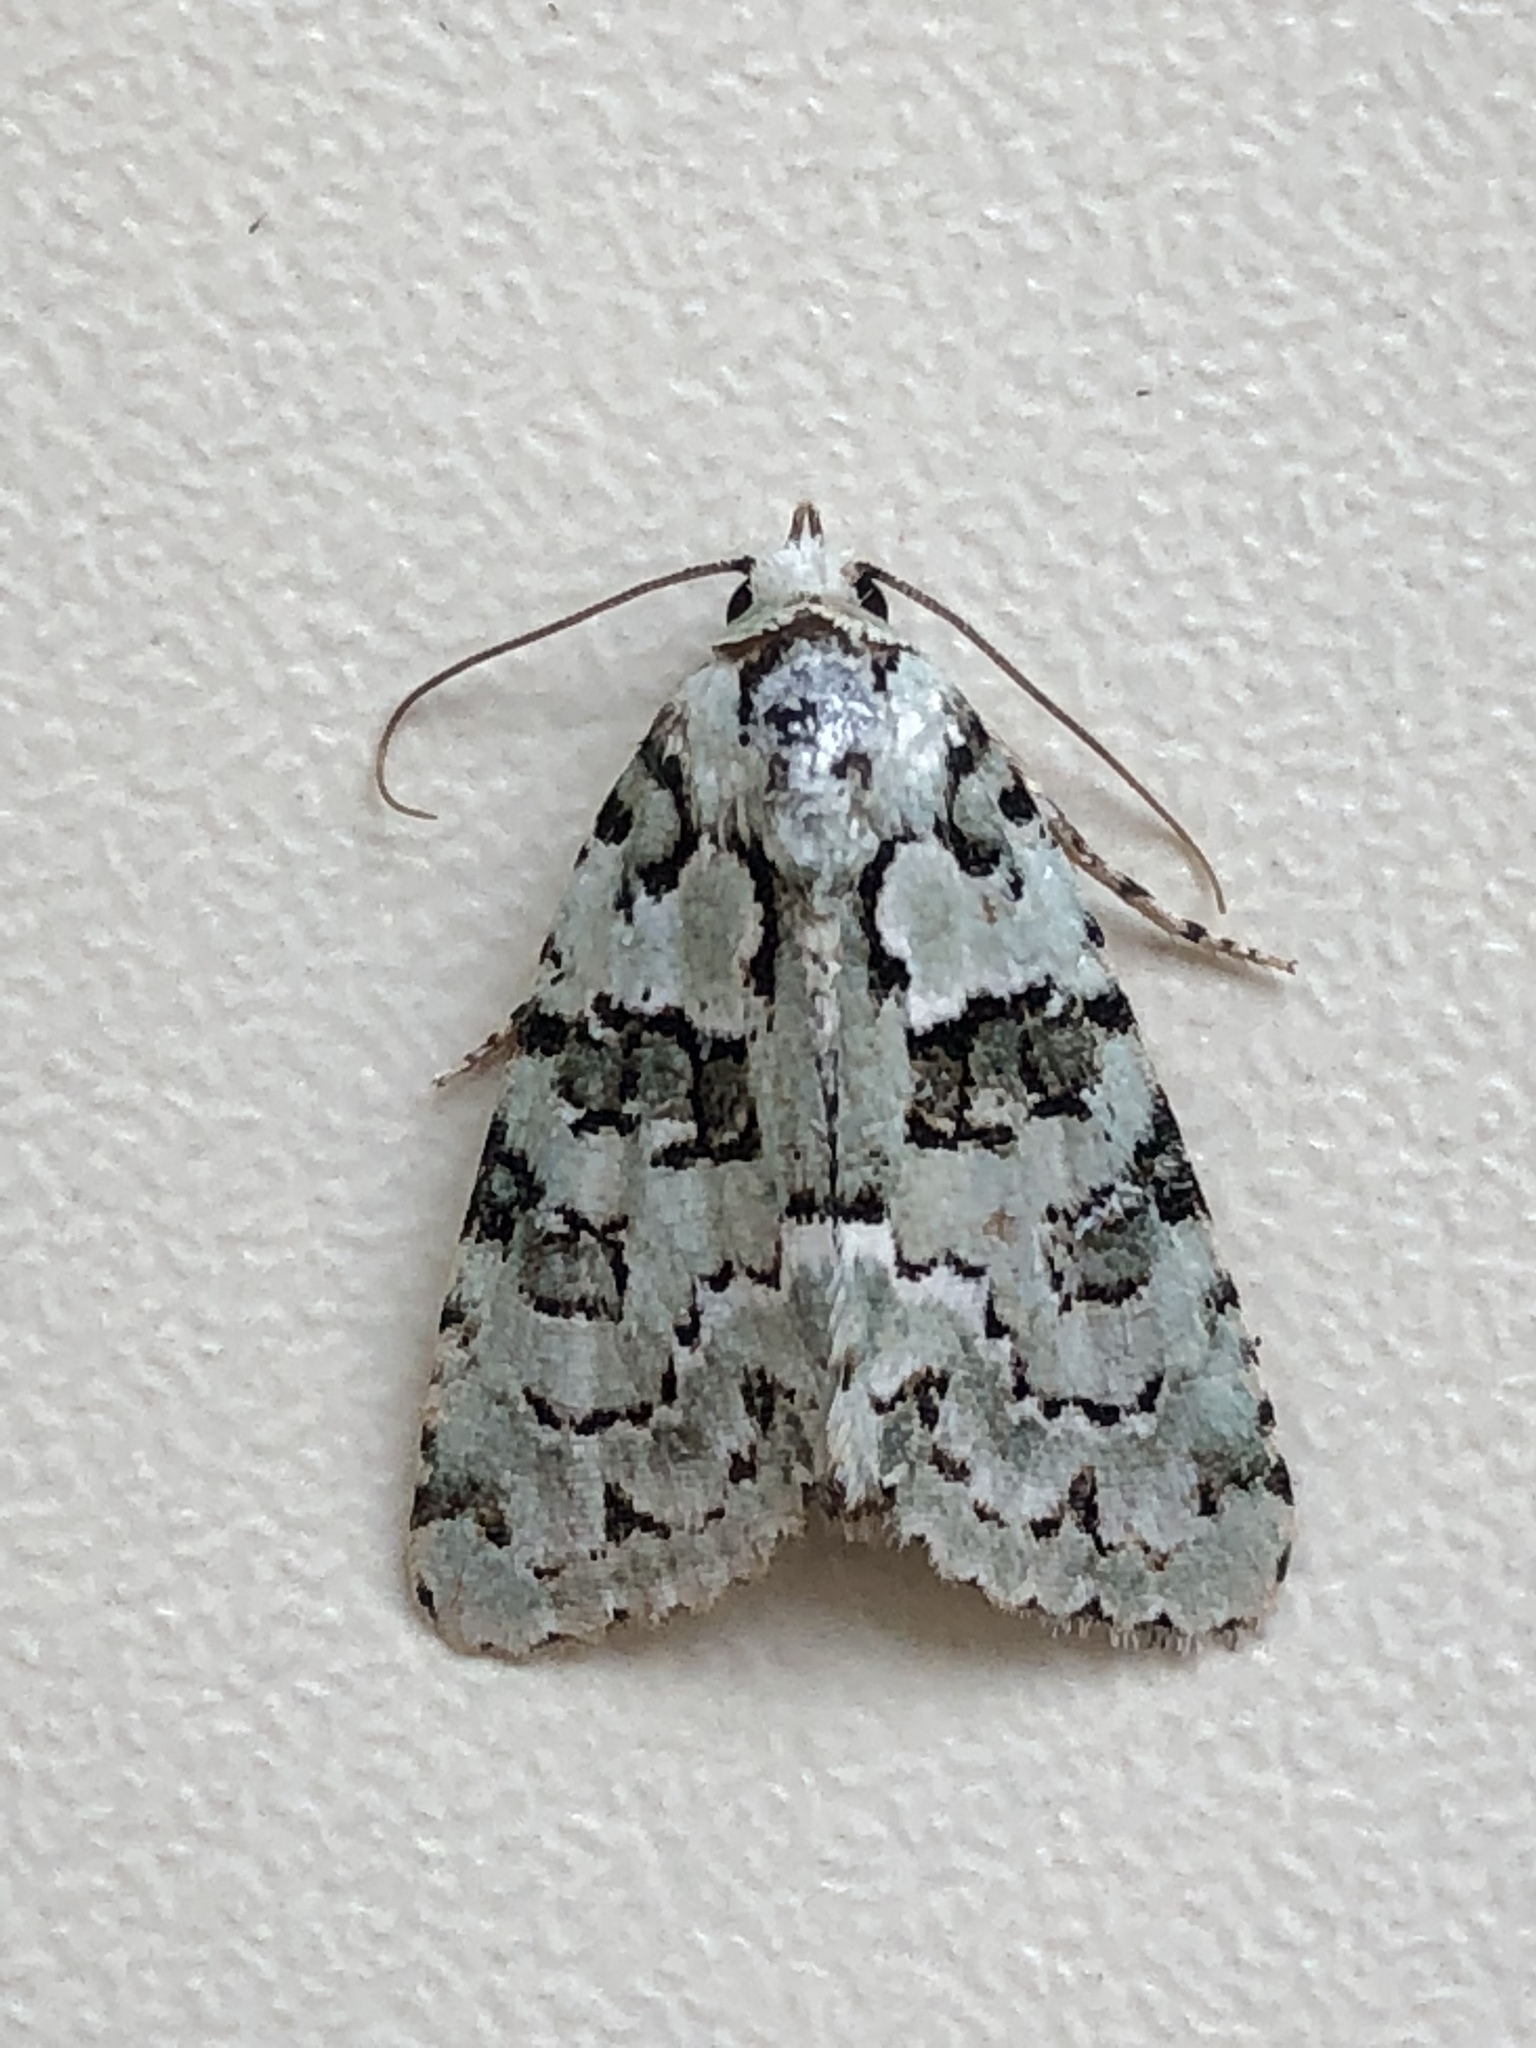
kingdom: Animalia
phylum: Arthropoda
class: Insecta
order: Lepidoptera
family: Noctuidae
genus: Nyctobrya
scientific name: Nyctobrya muralis
